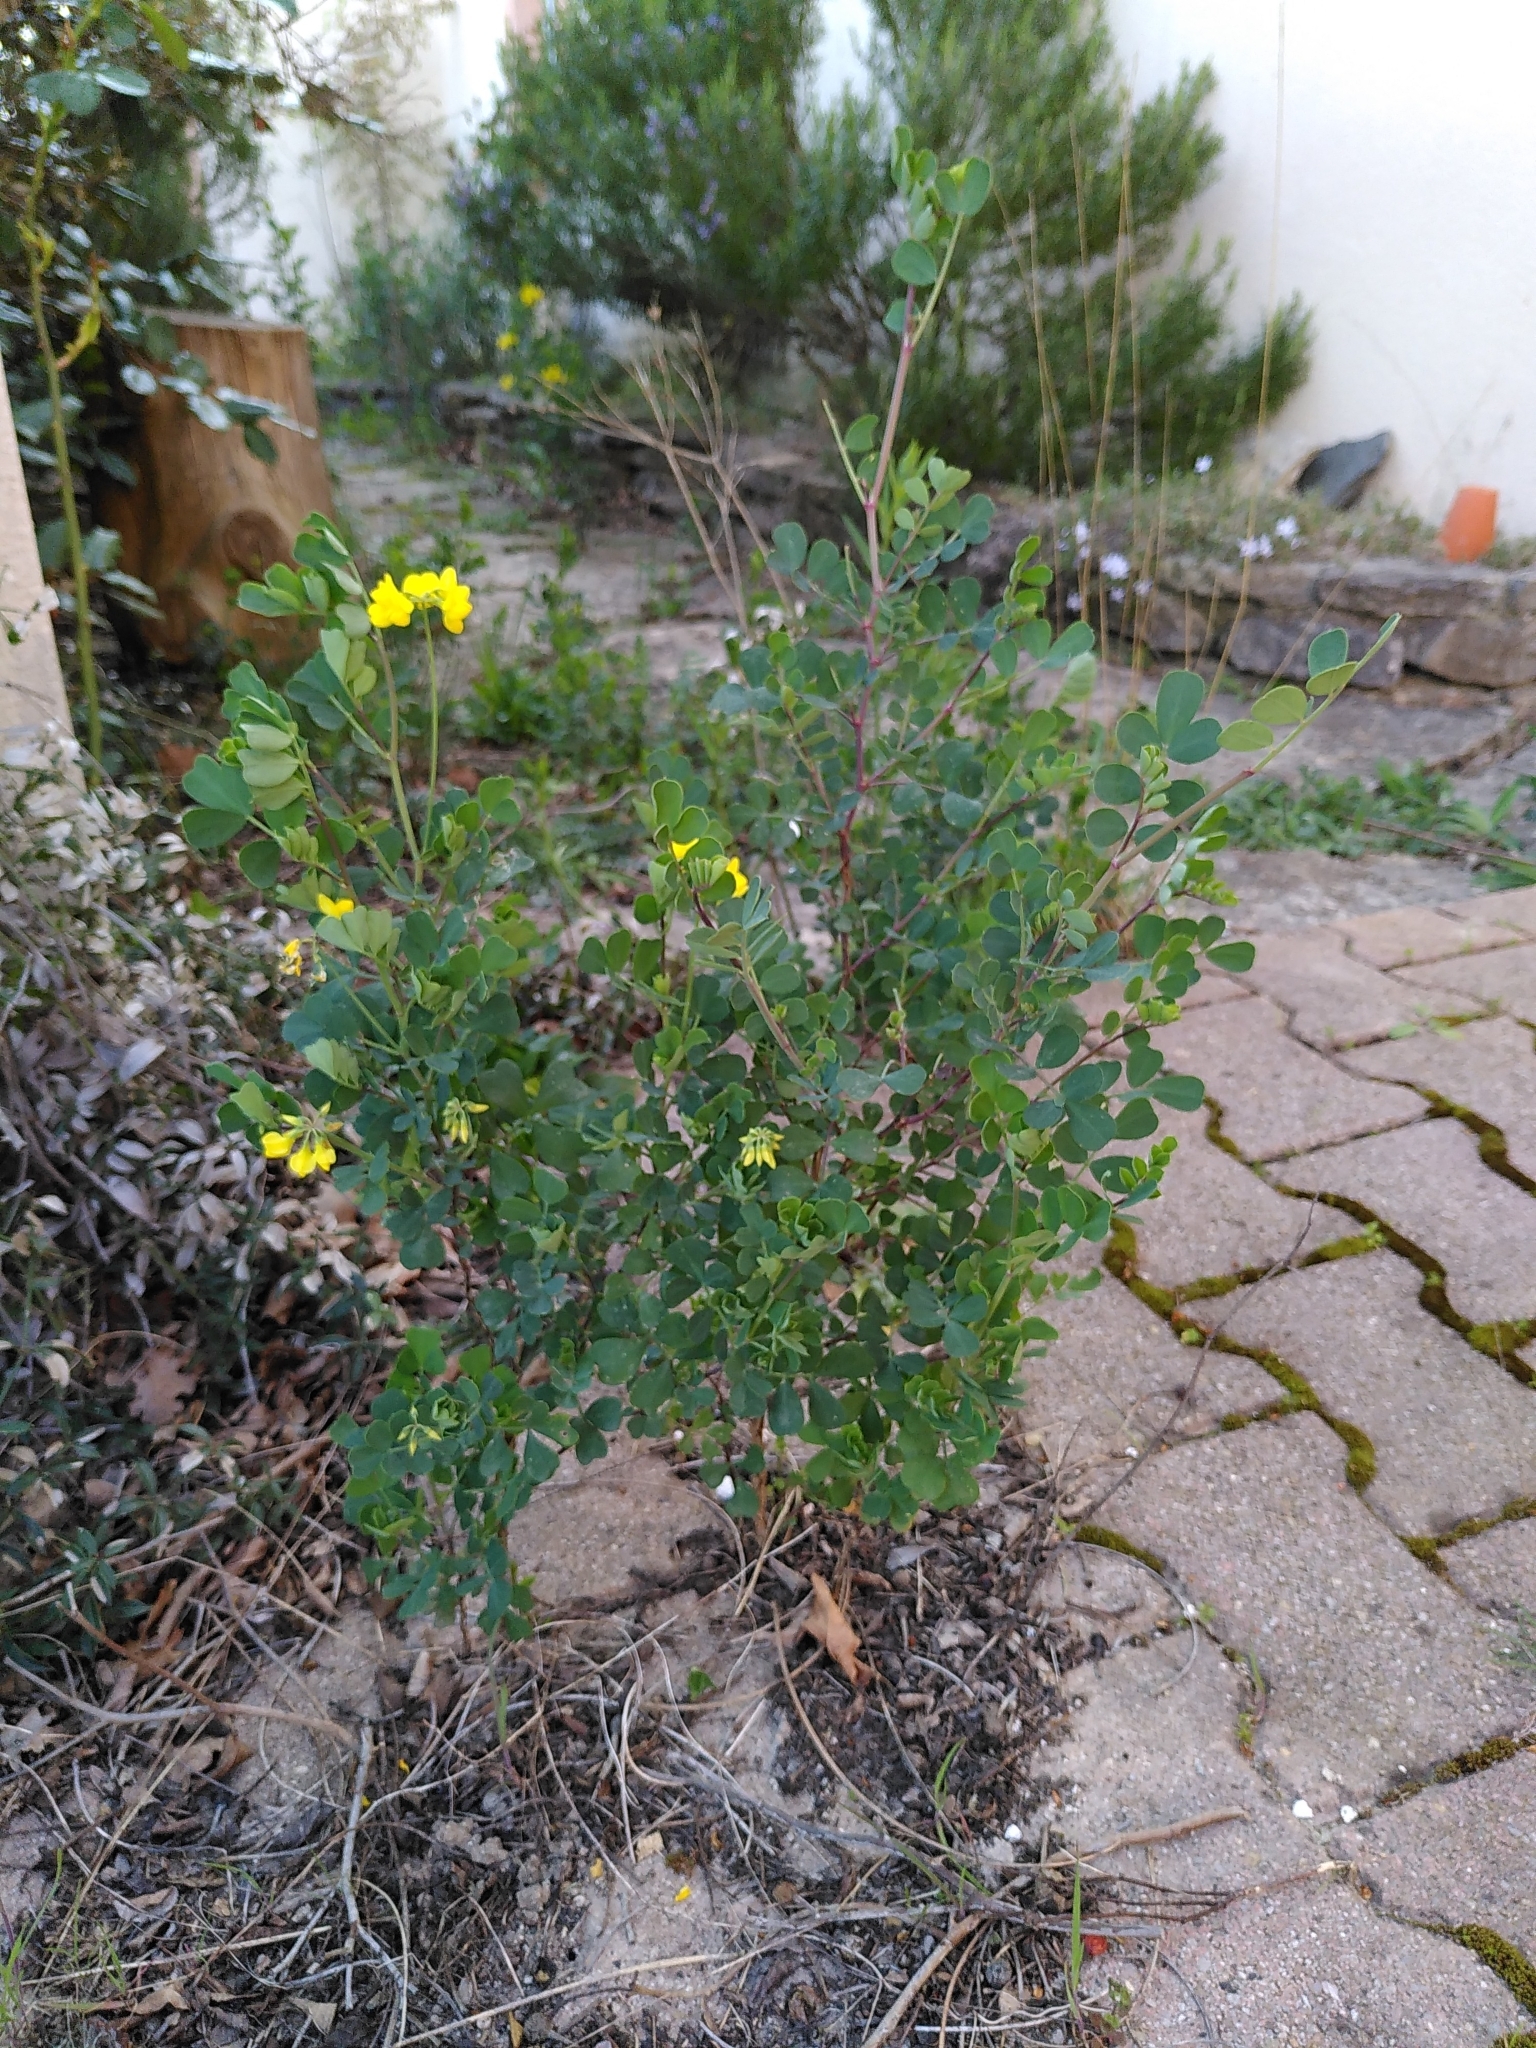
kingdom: Plantae
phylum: Tracheophyta
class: Magnoliopsida
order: Fabales
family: Fabaceae
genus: Coronilla
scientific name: Coronilla valentina
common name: Shrubby scorpion-vetch
